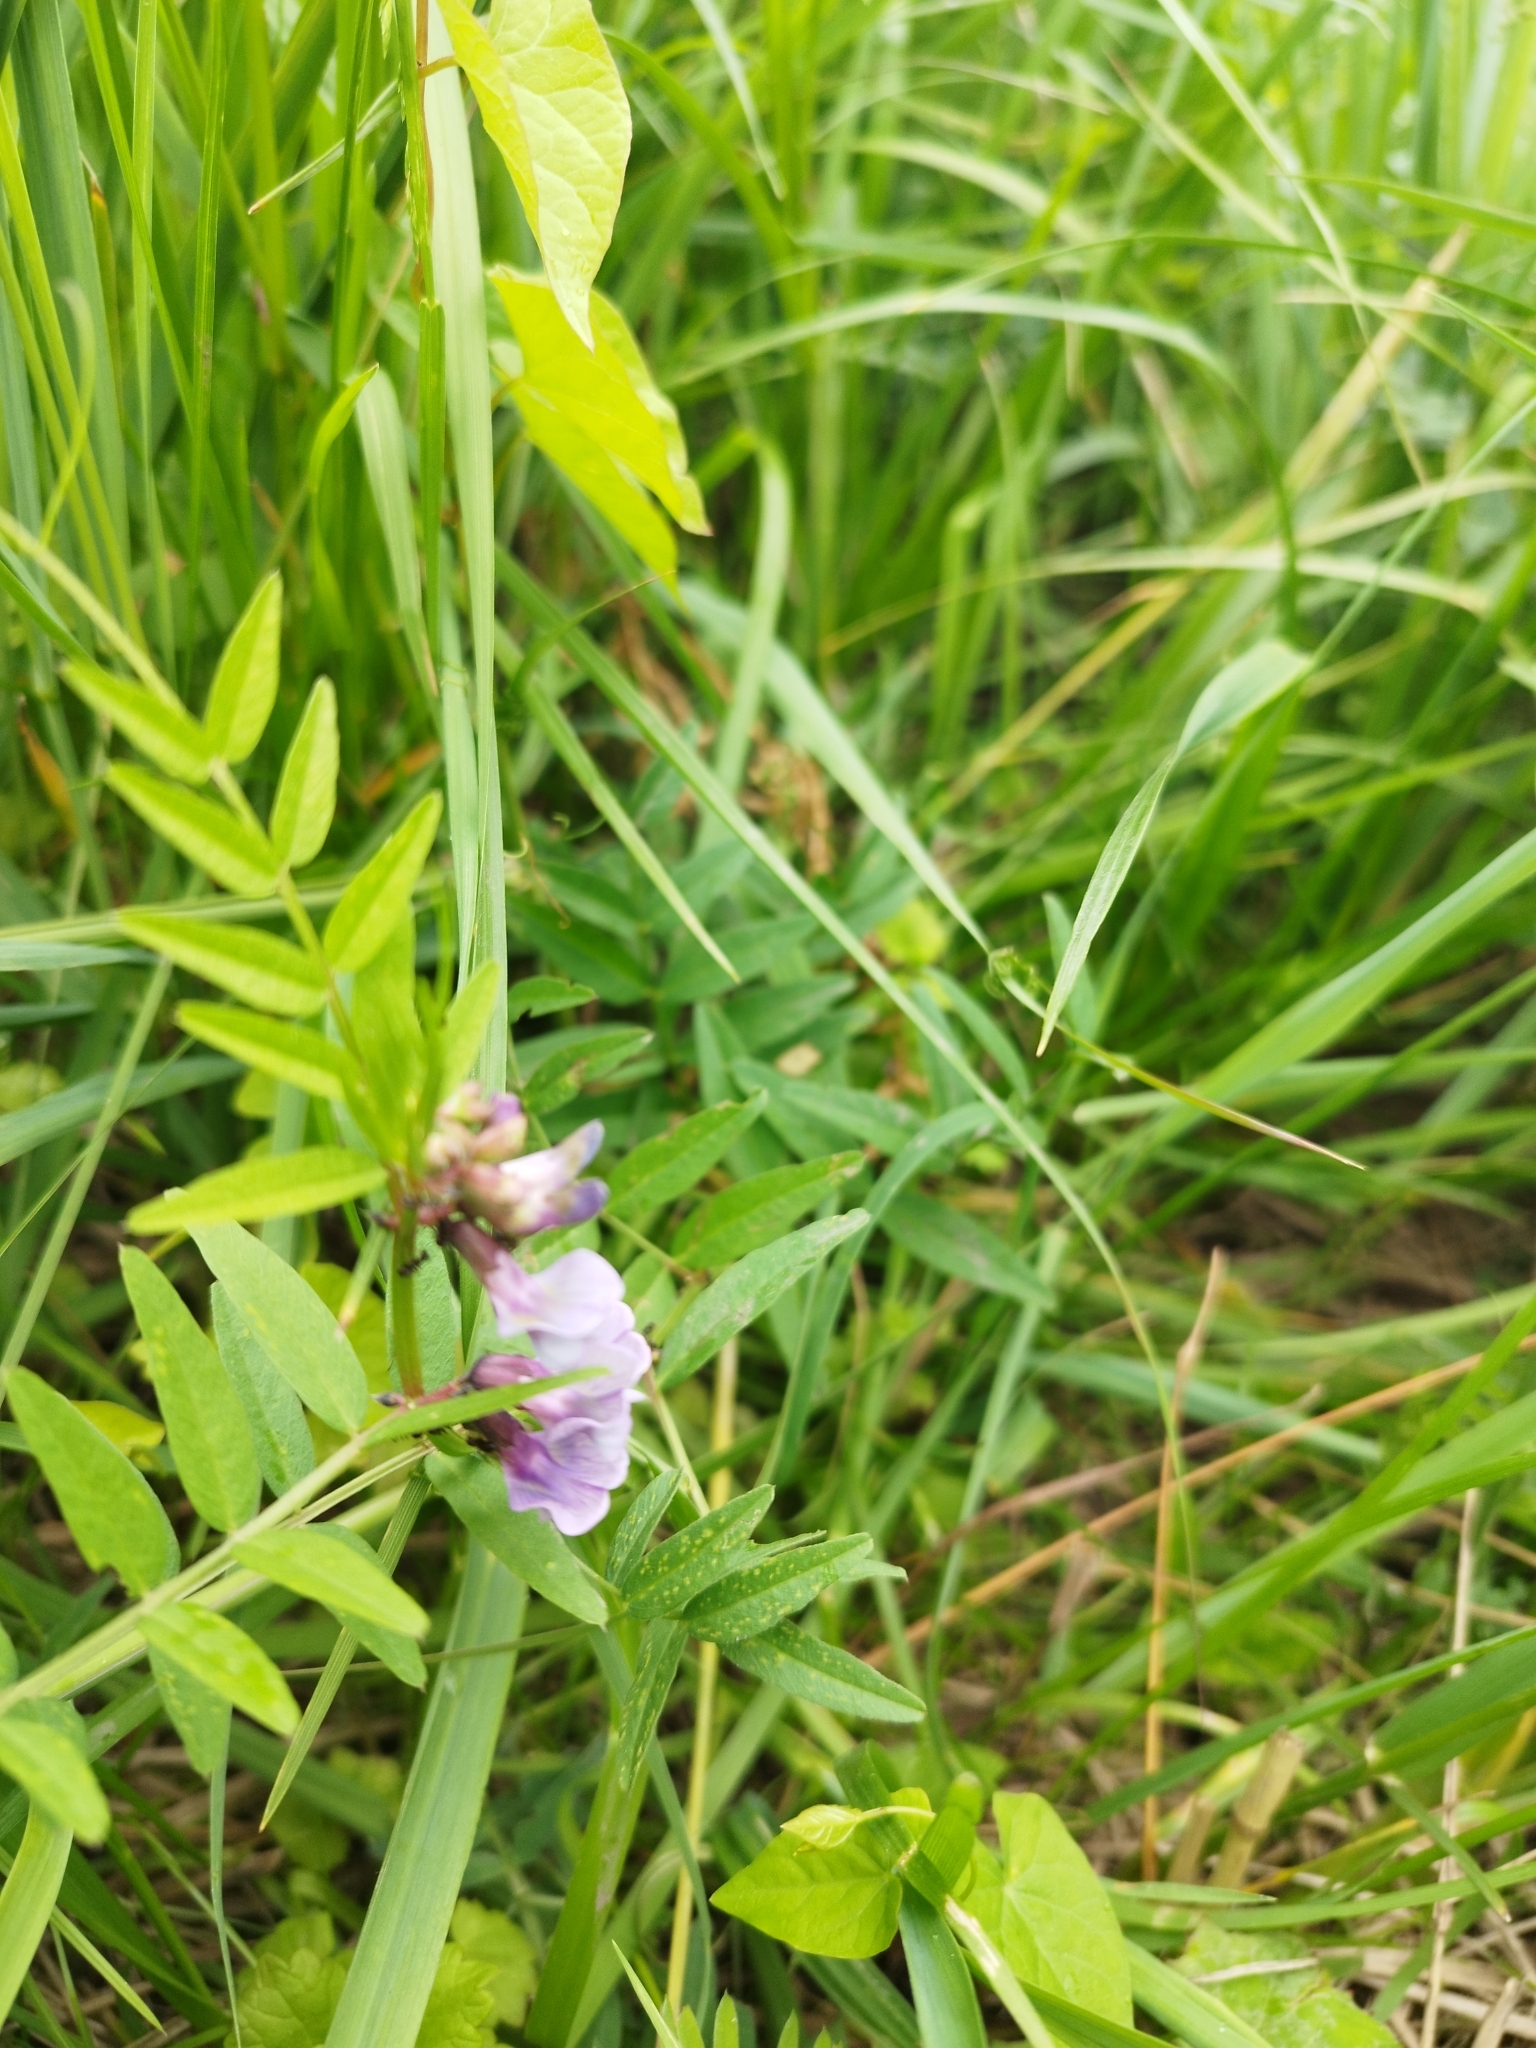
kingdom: Plantae
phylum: Tracheophyta
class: Magnoliopsida
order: Fabales
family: Fabaceae
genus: Vicia
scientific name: Vicia sepium
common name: Bush vetch
